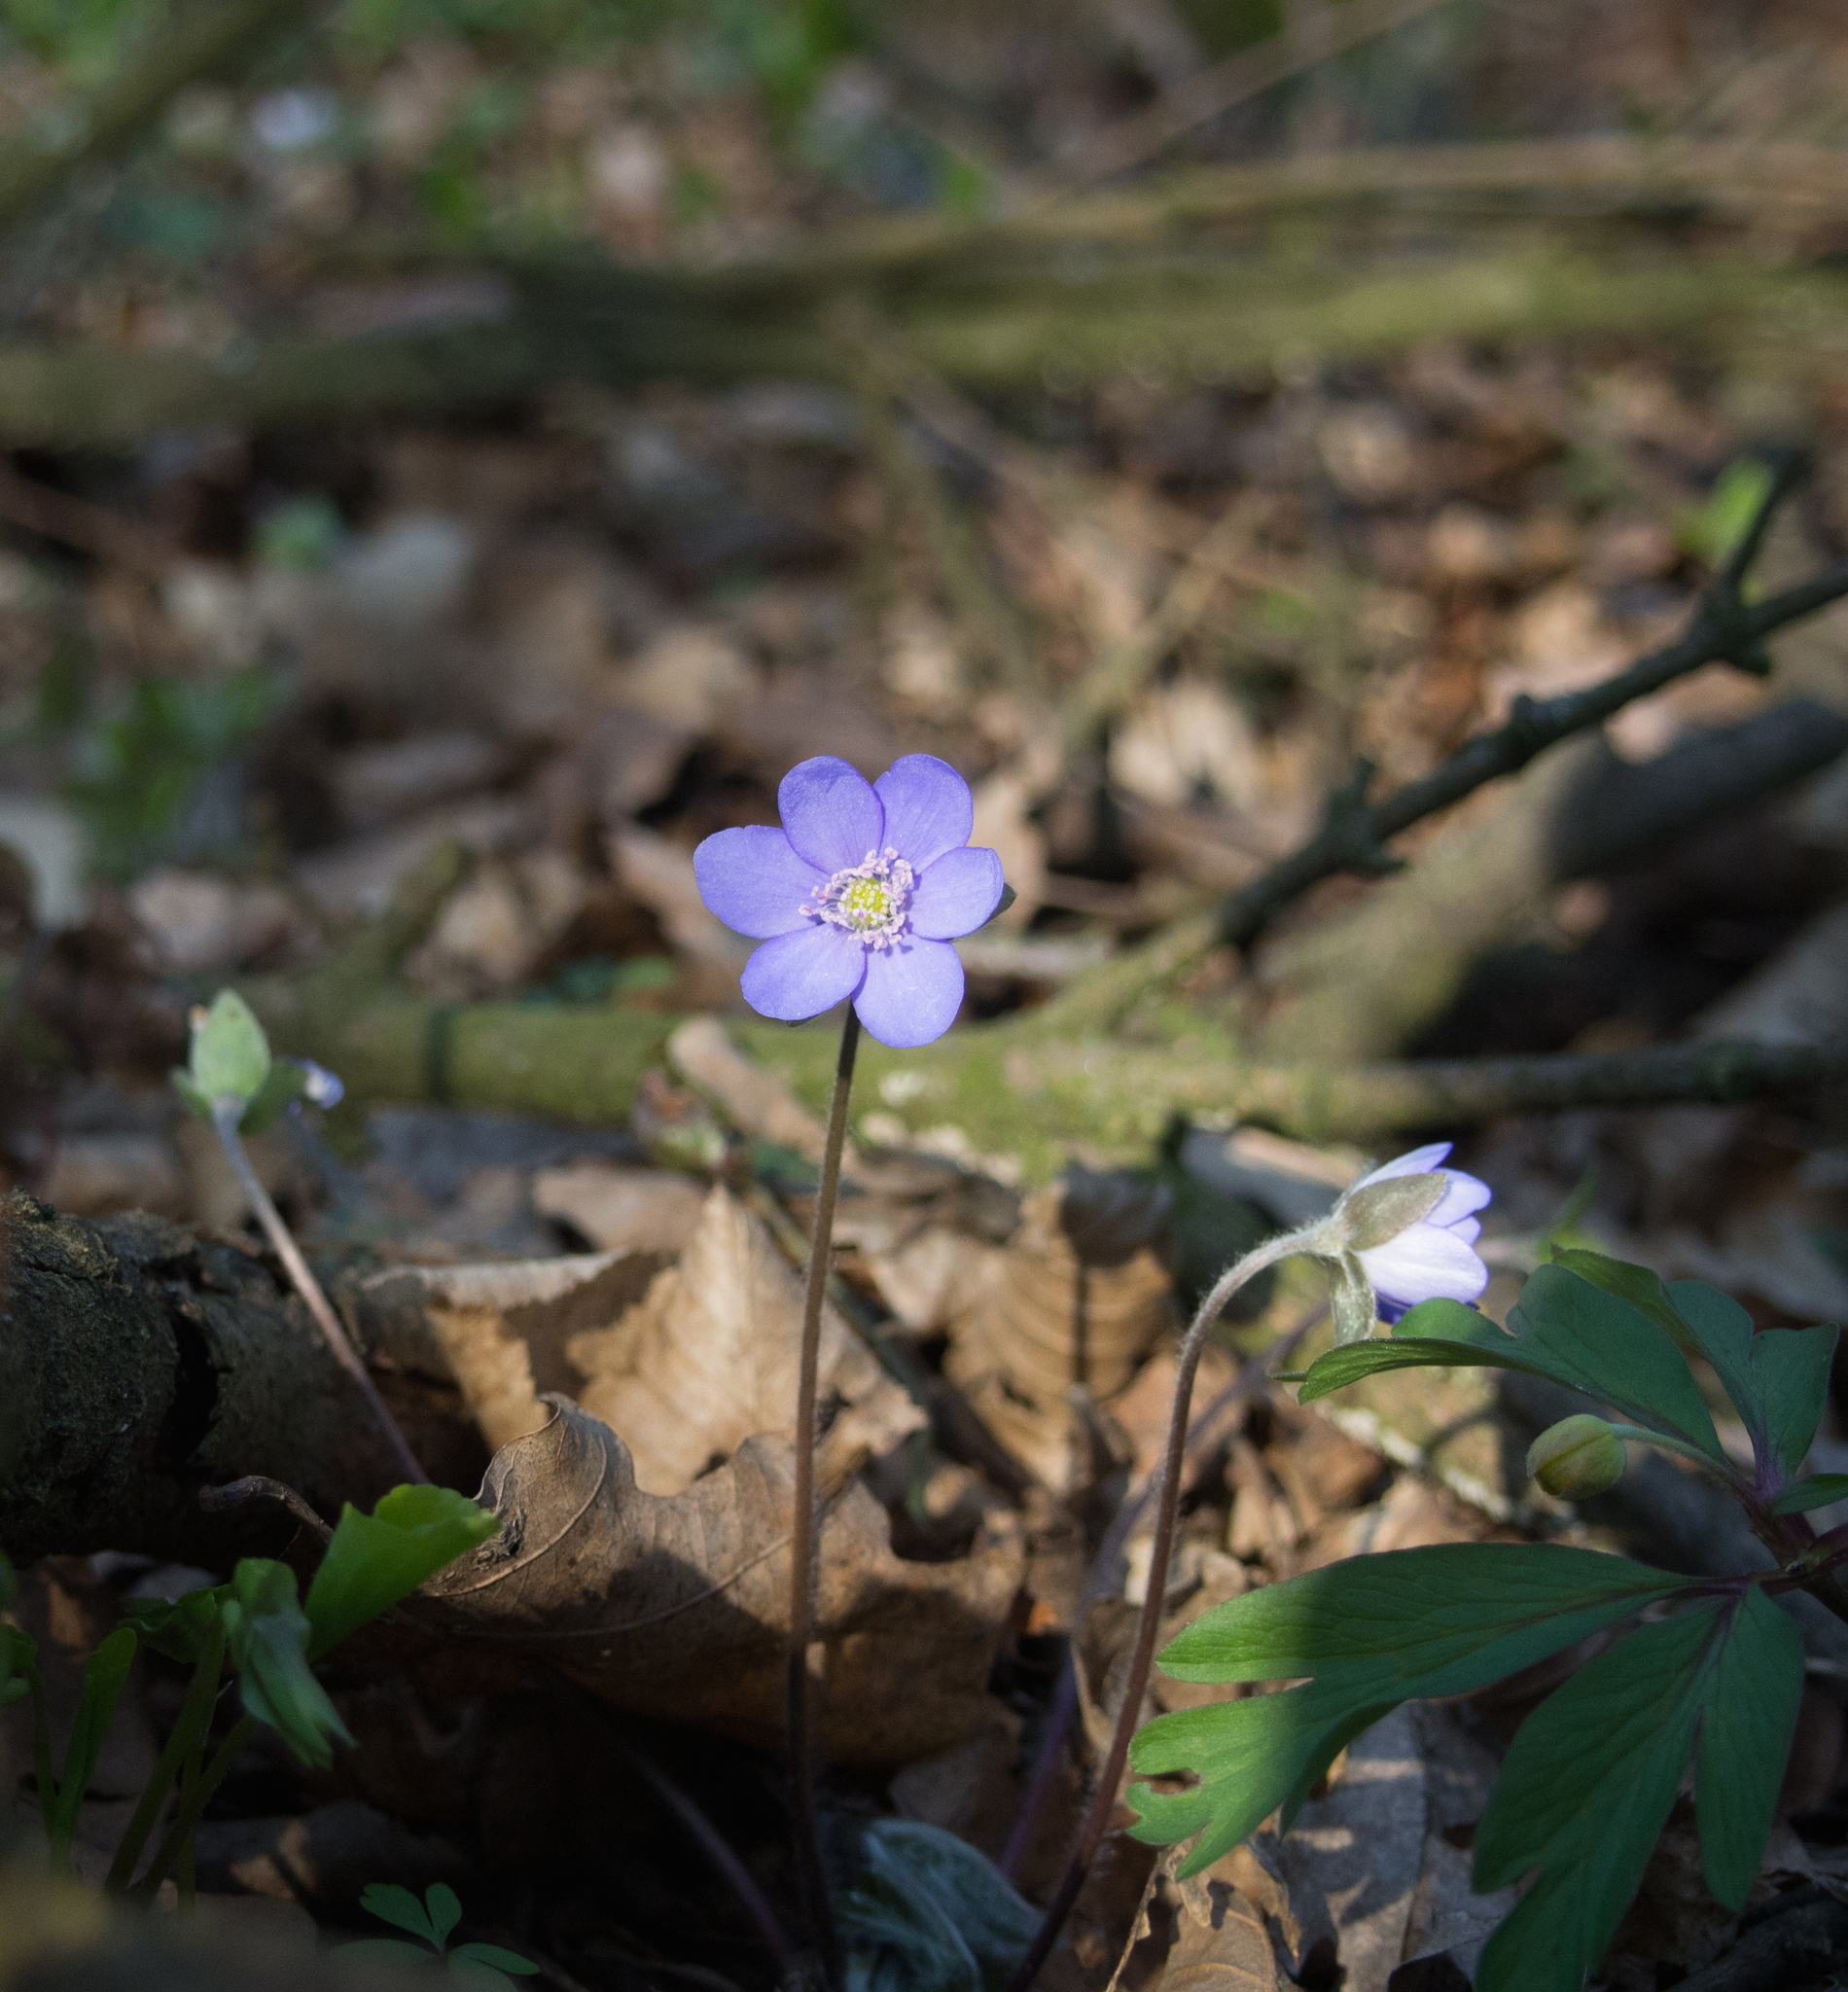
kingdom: Plantae
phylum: Tracheophyta
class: Magnoliopsida
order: Ranunculales
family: Ranunculaceae
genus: Hepatica
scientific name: Hepatica nobilis
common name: Liverleaf
